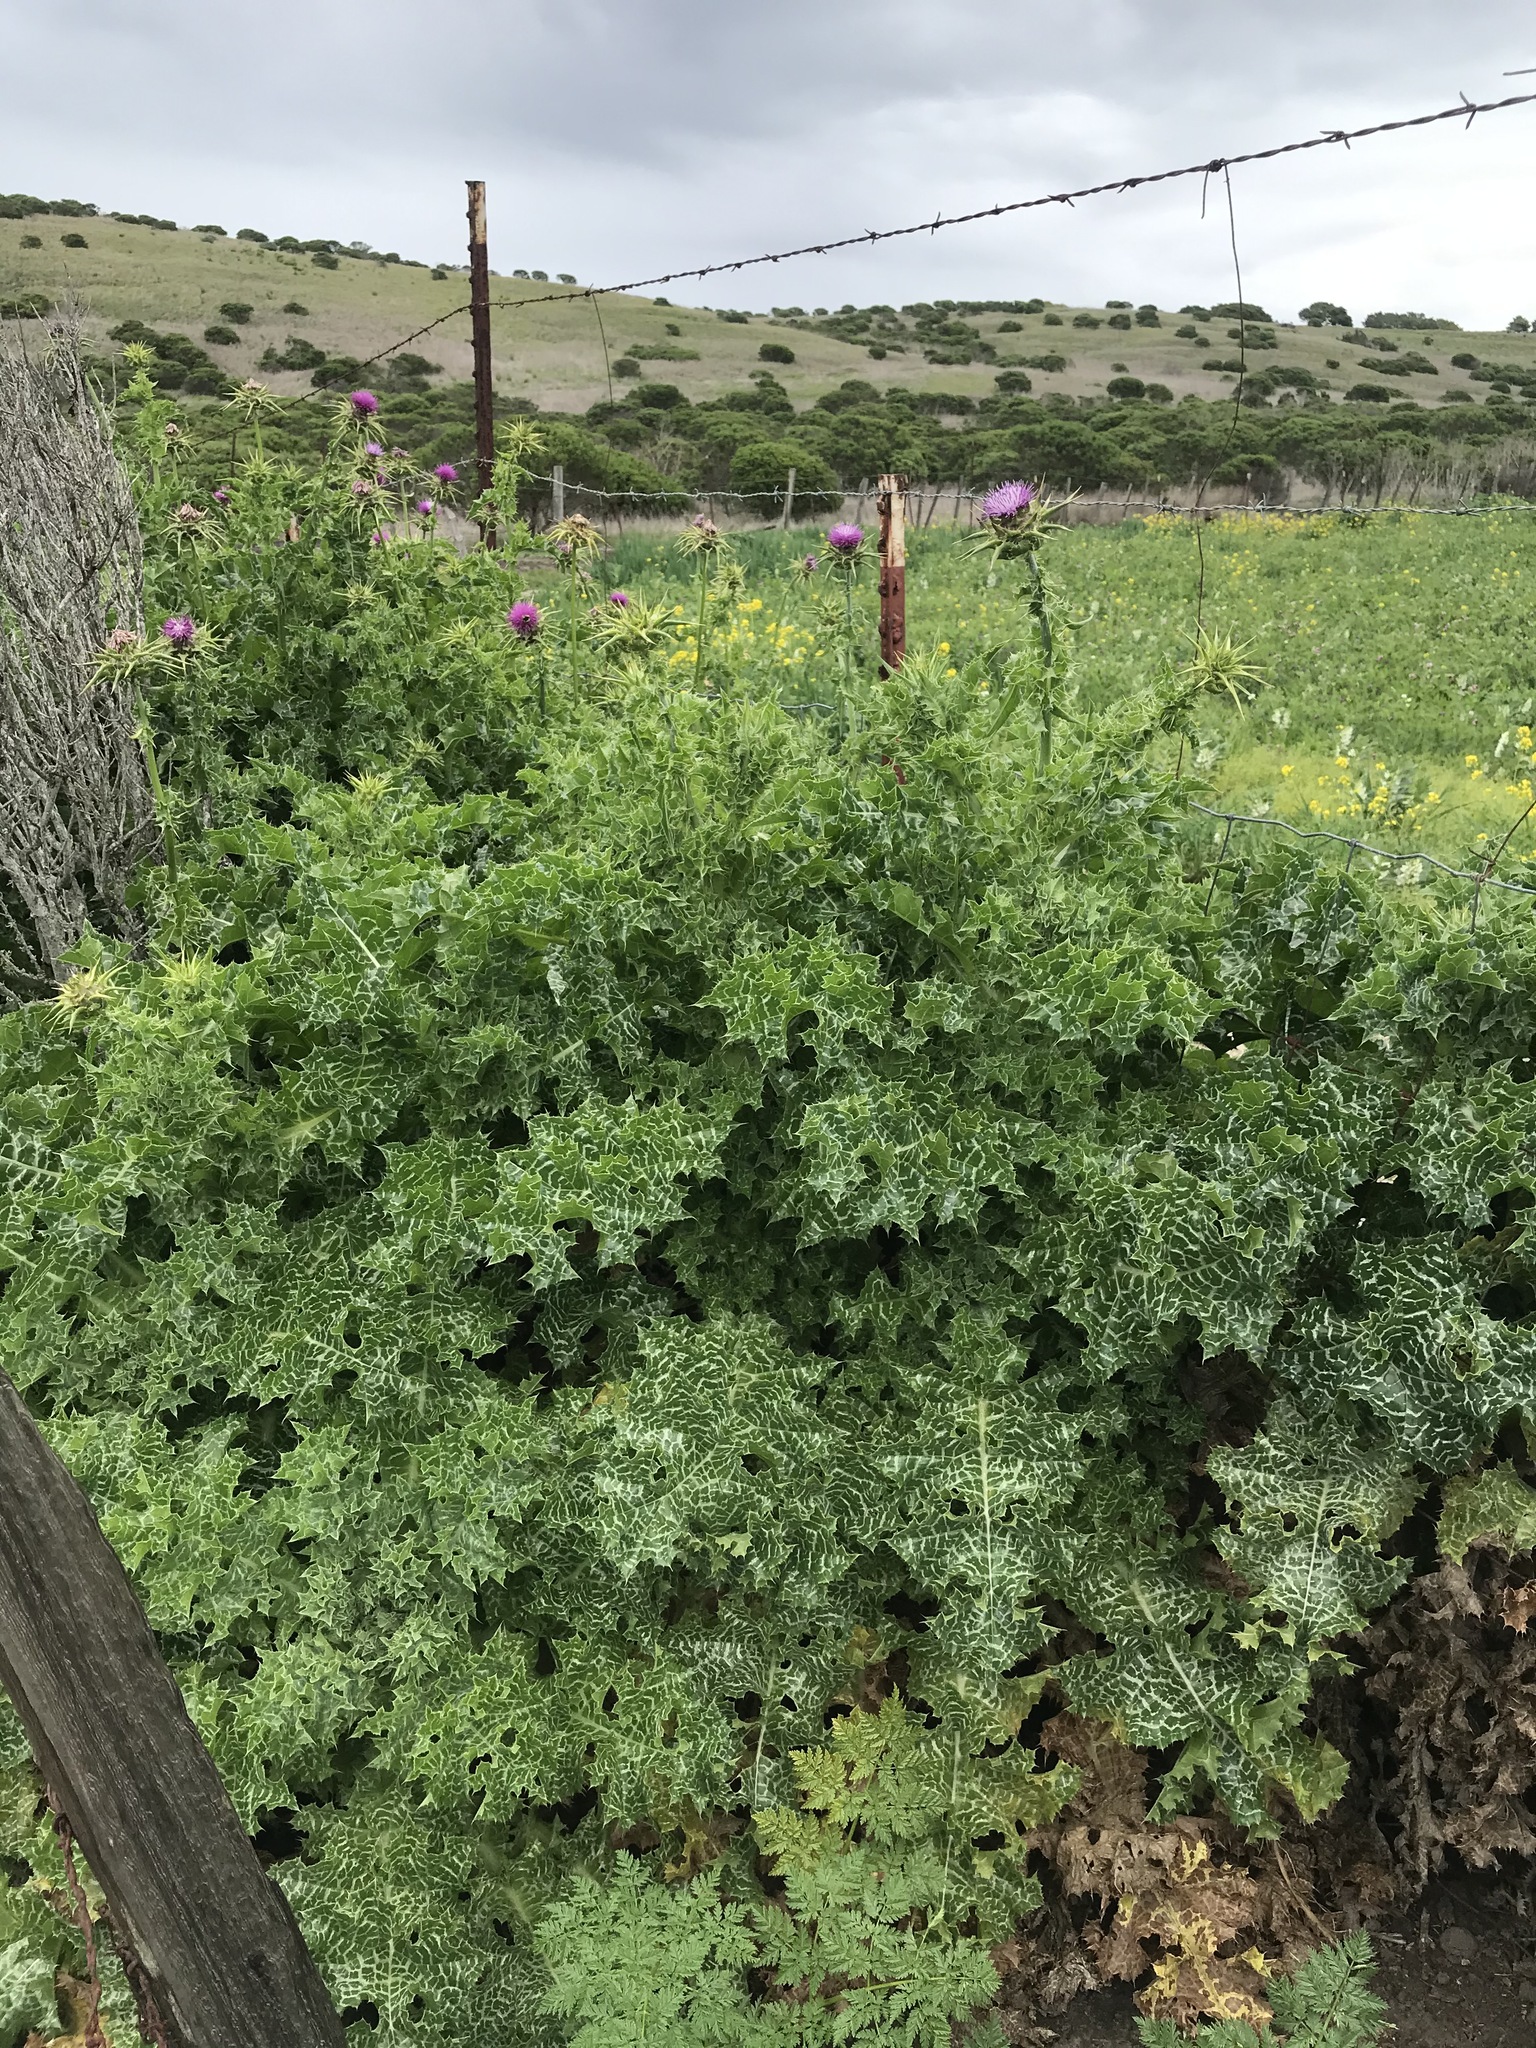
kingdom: Plantae
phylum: Tracheophyta
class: Magnoliopsida
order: Asterales
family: Asteraceae
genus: Silybum
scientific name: Silybum marianum
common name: Milk thistle
